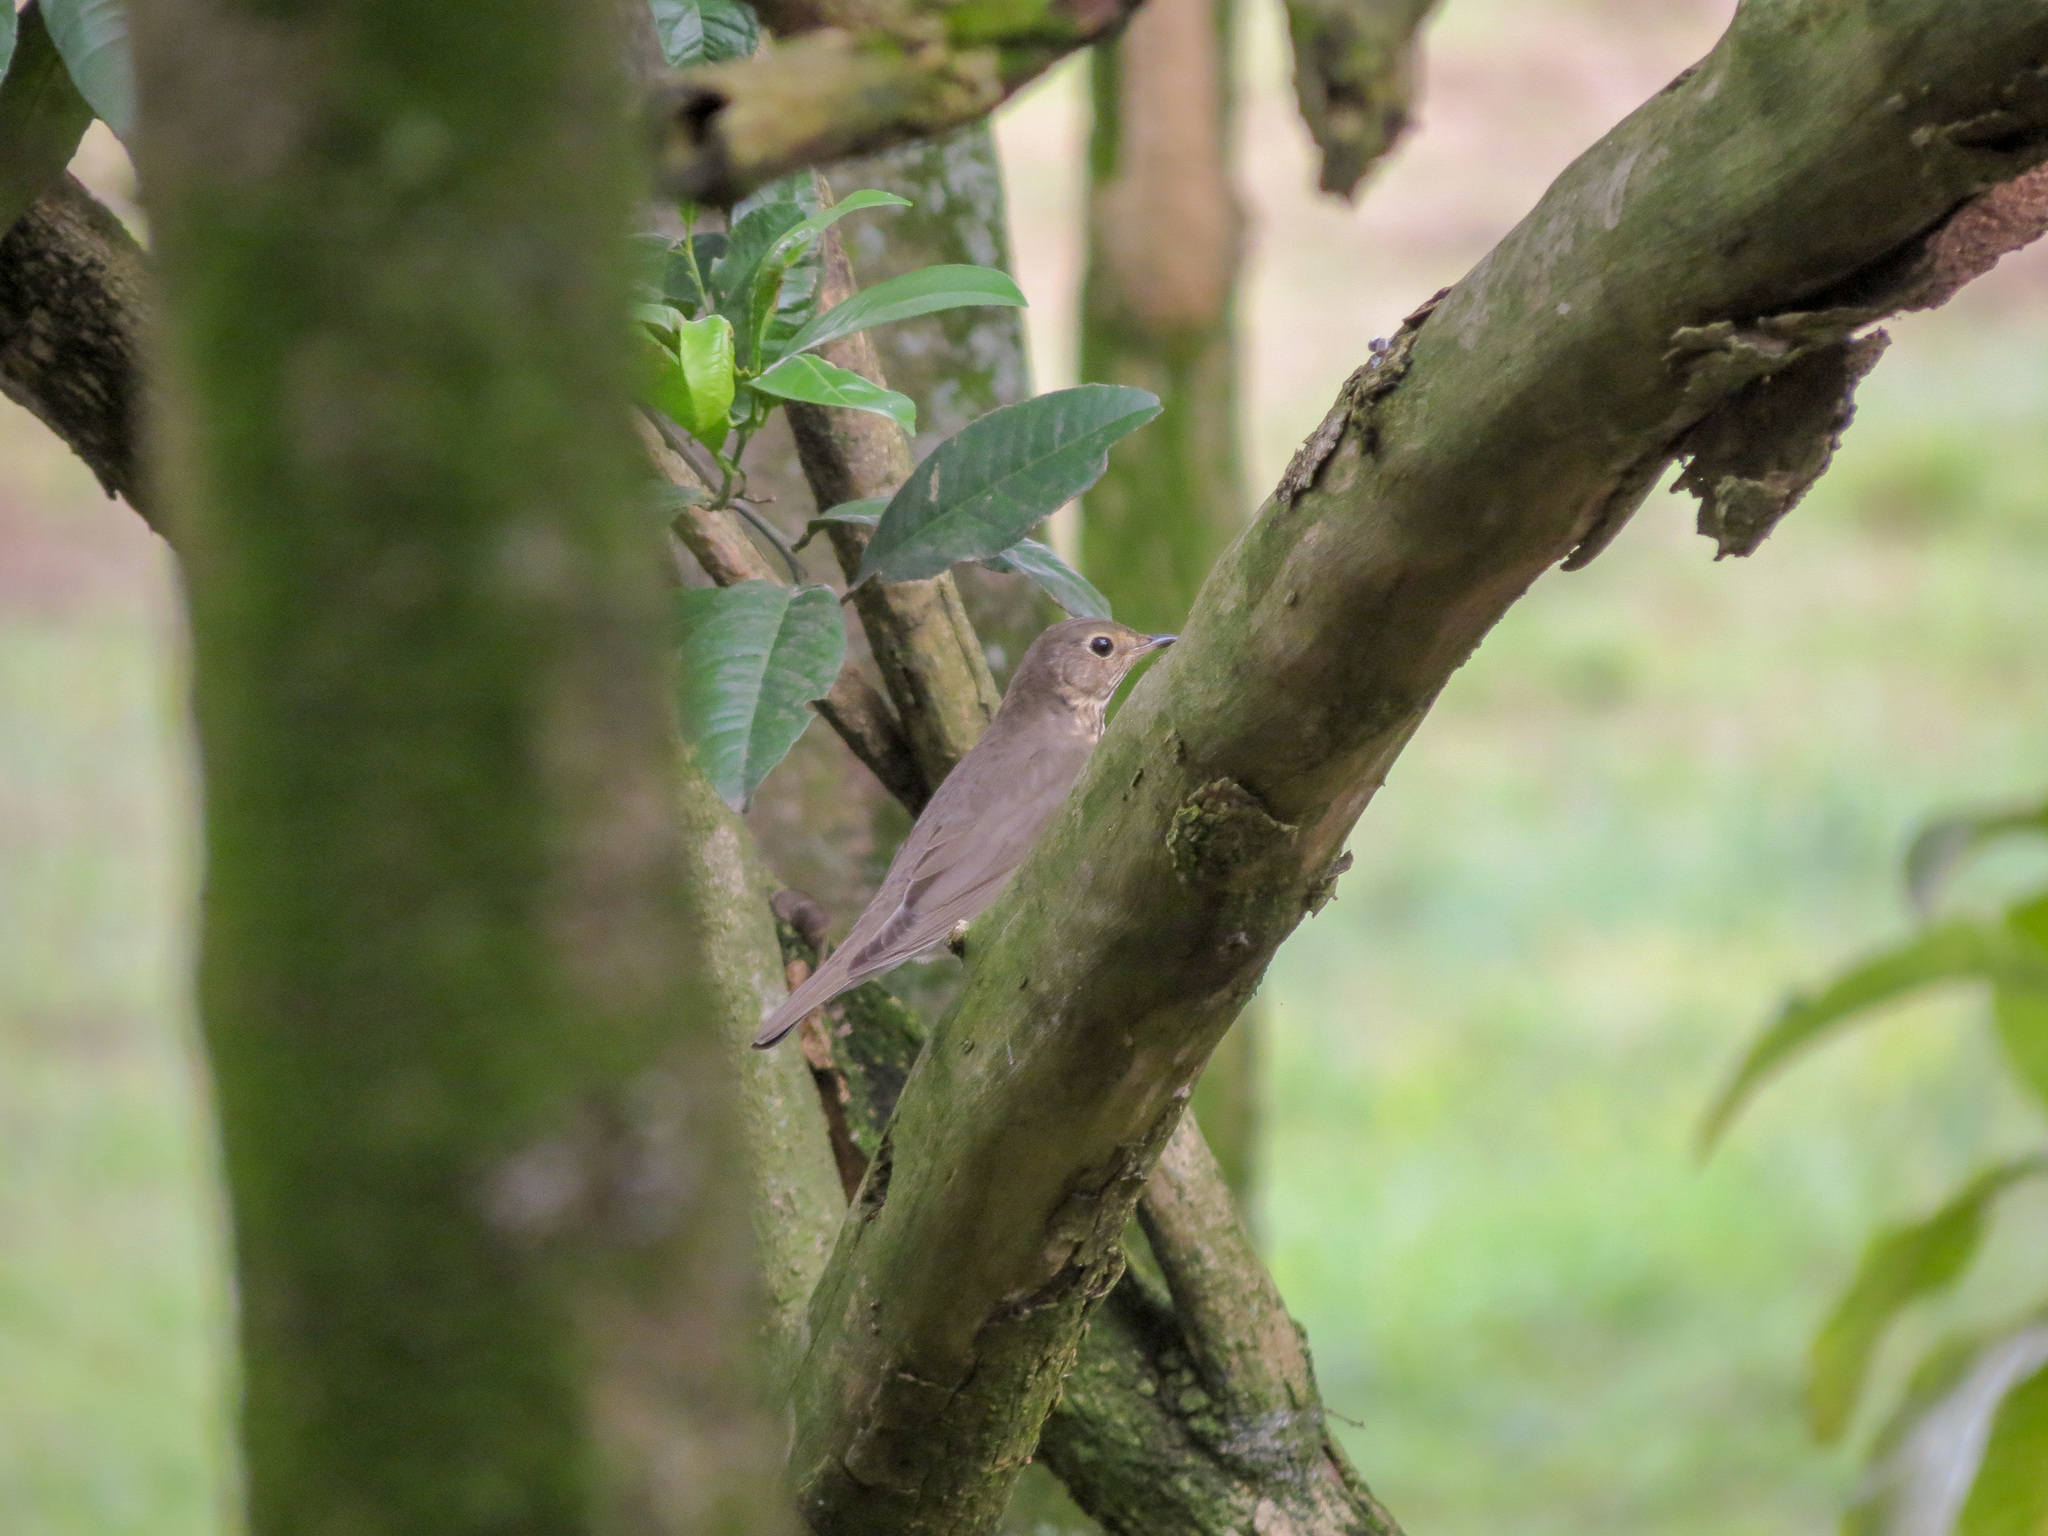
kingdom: Animalia
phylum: Chordata
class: Aves
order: Passeriformes
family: Turdidae
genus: Catharus
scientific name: Catharus ustulatus
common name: Swainson's thrush
